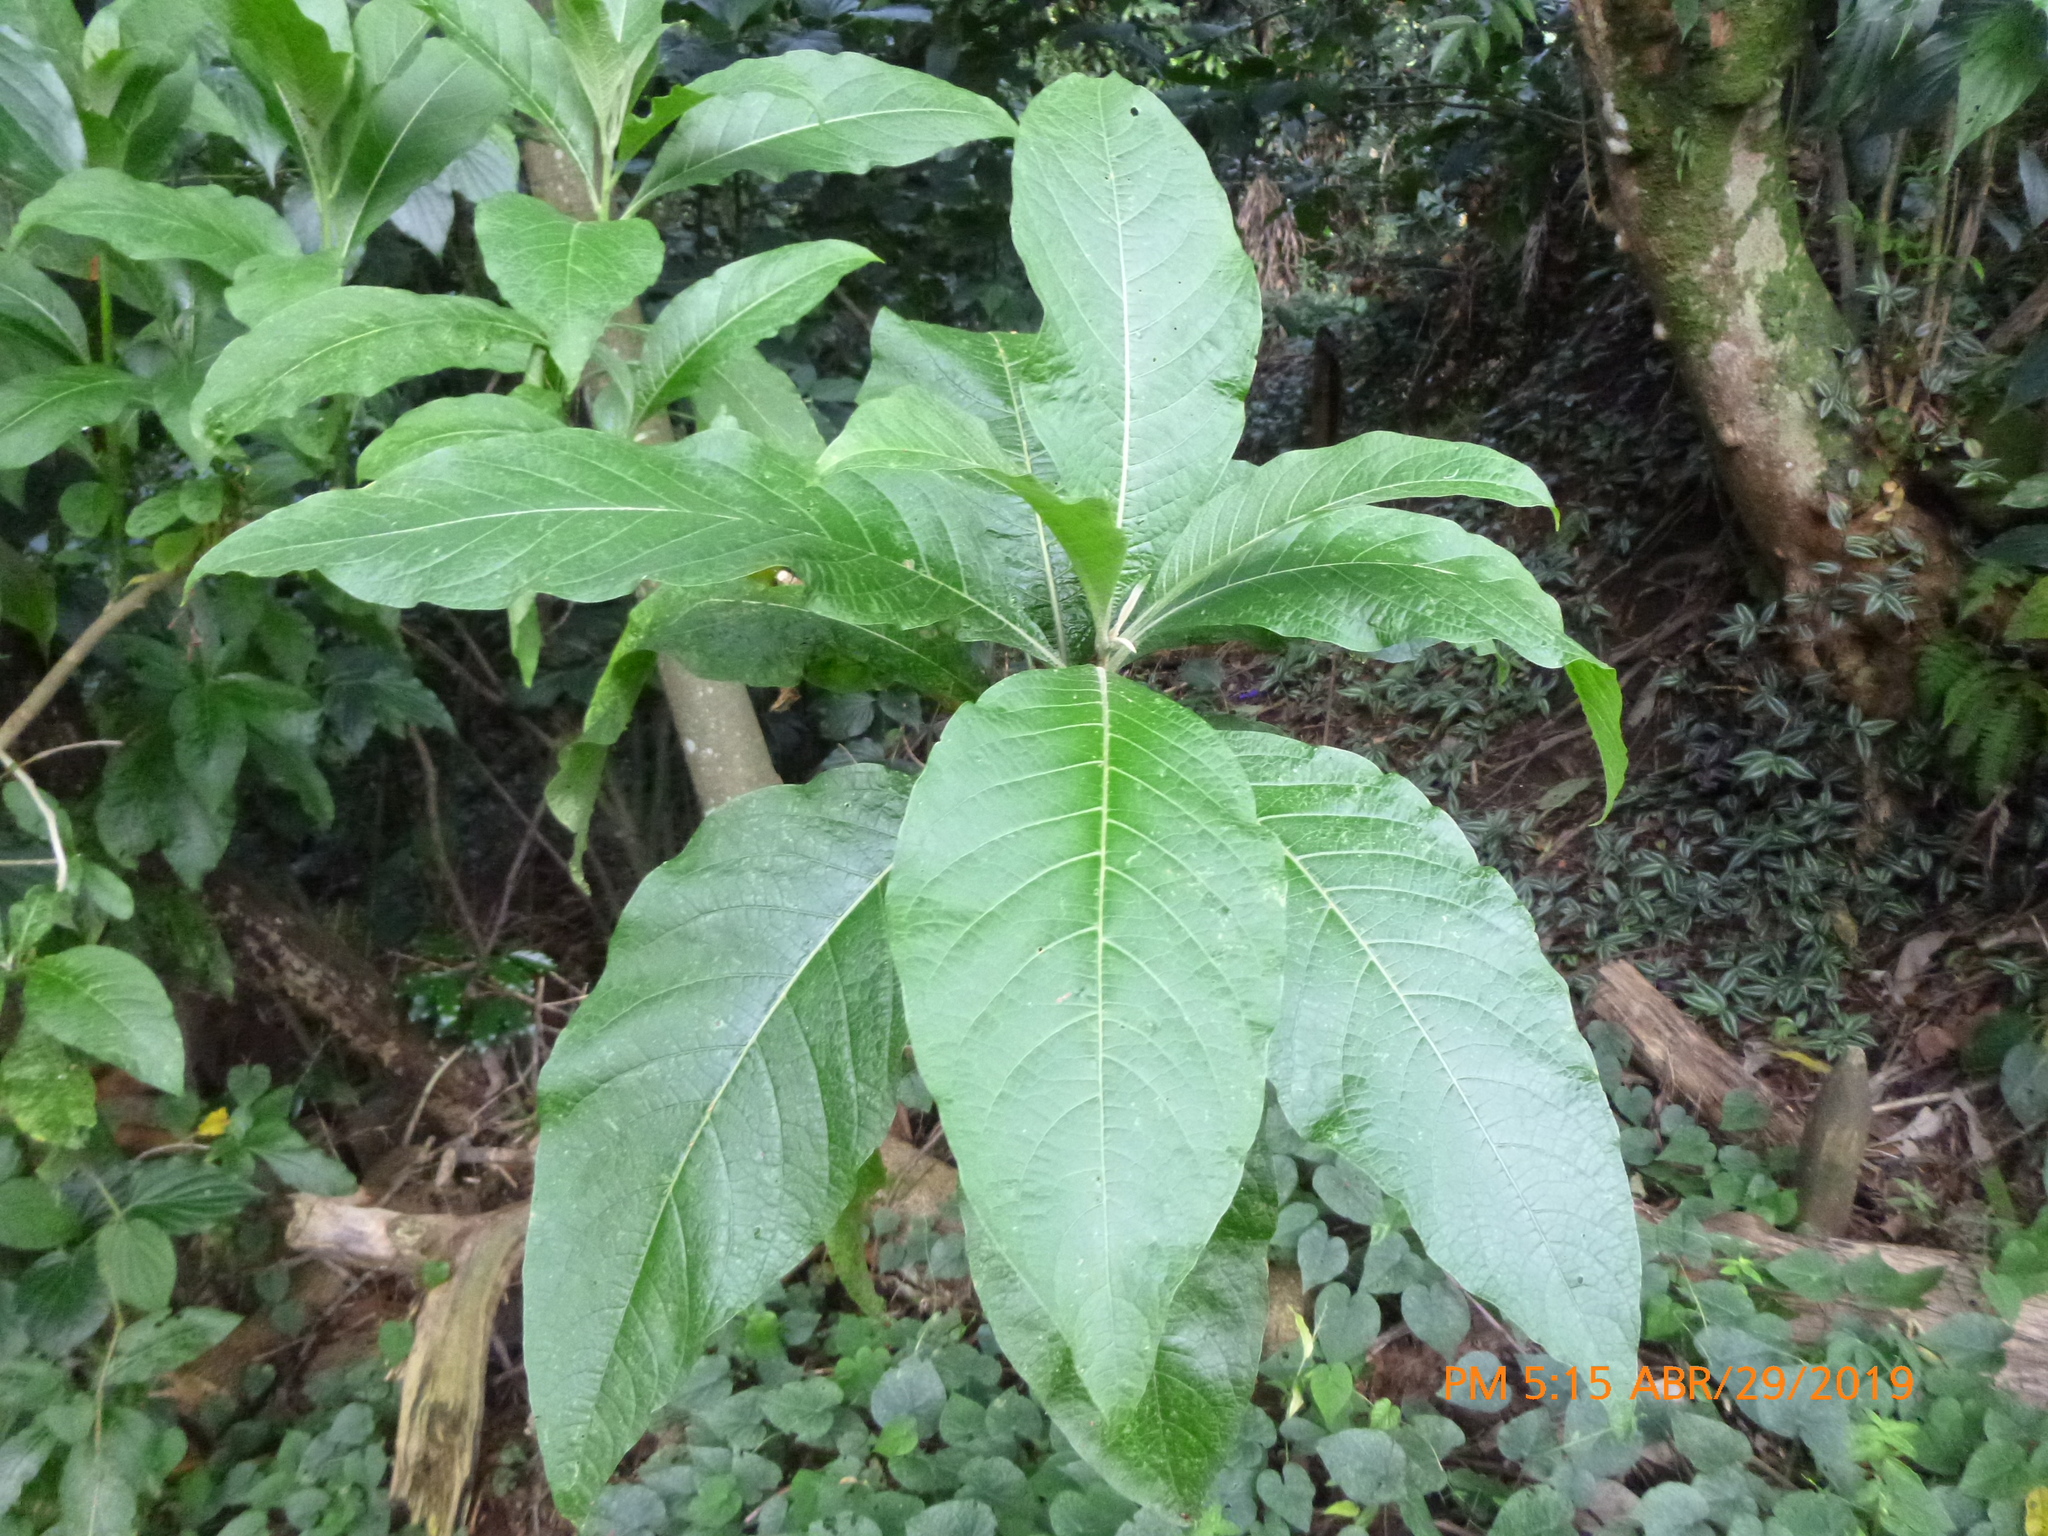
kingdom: Plantae
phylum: Tracheophyta
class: Magnoliopsida
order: Solanales
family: Solanaceae
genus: Iochroma
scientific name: Iochroma arborescens
